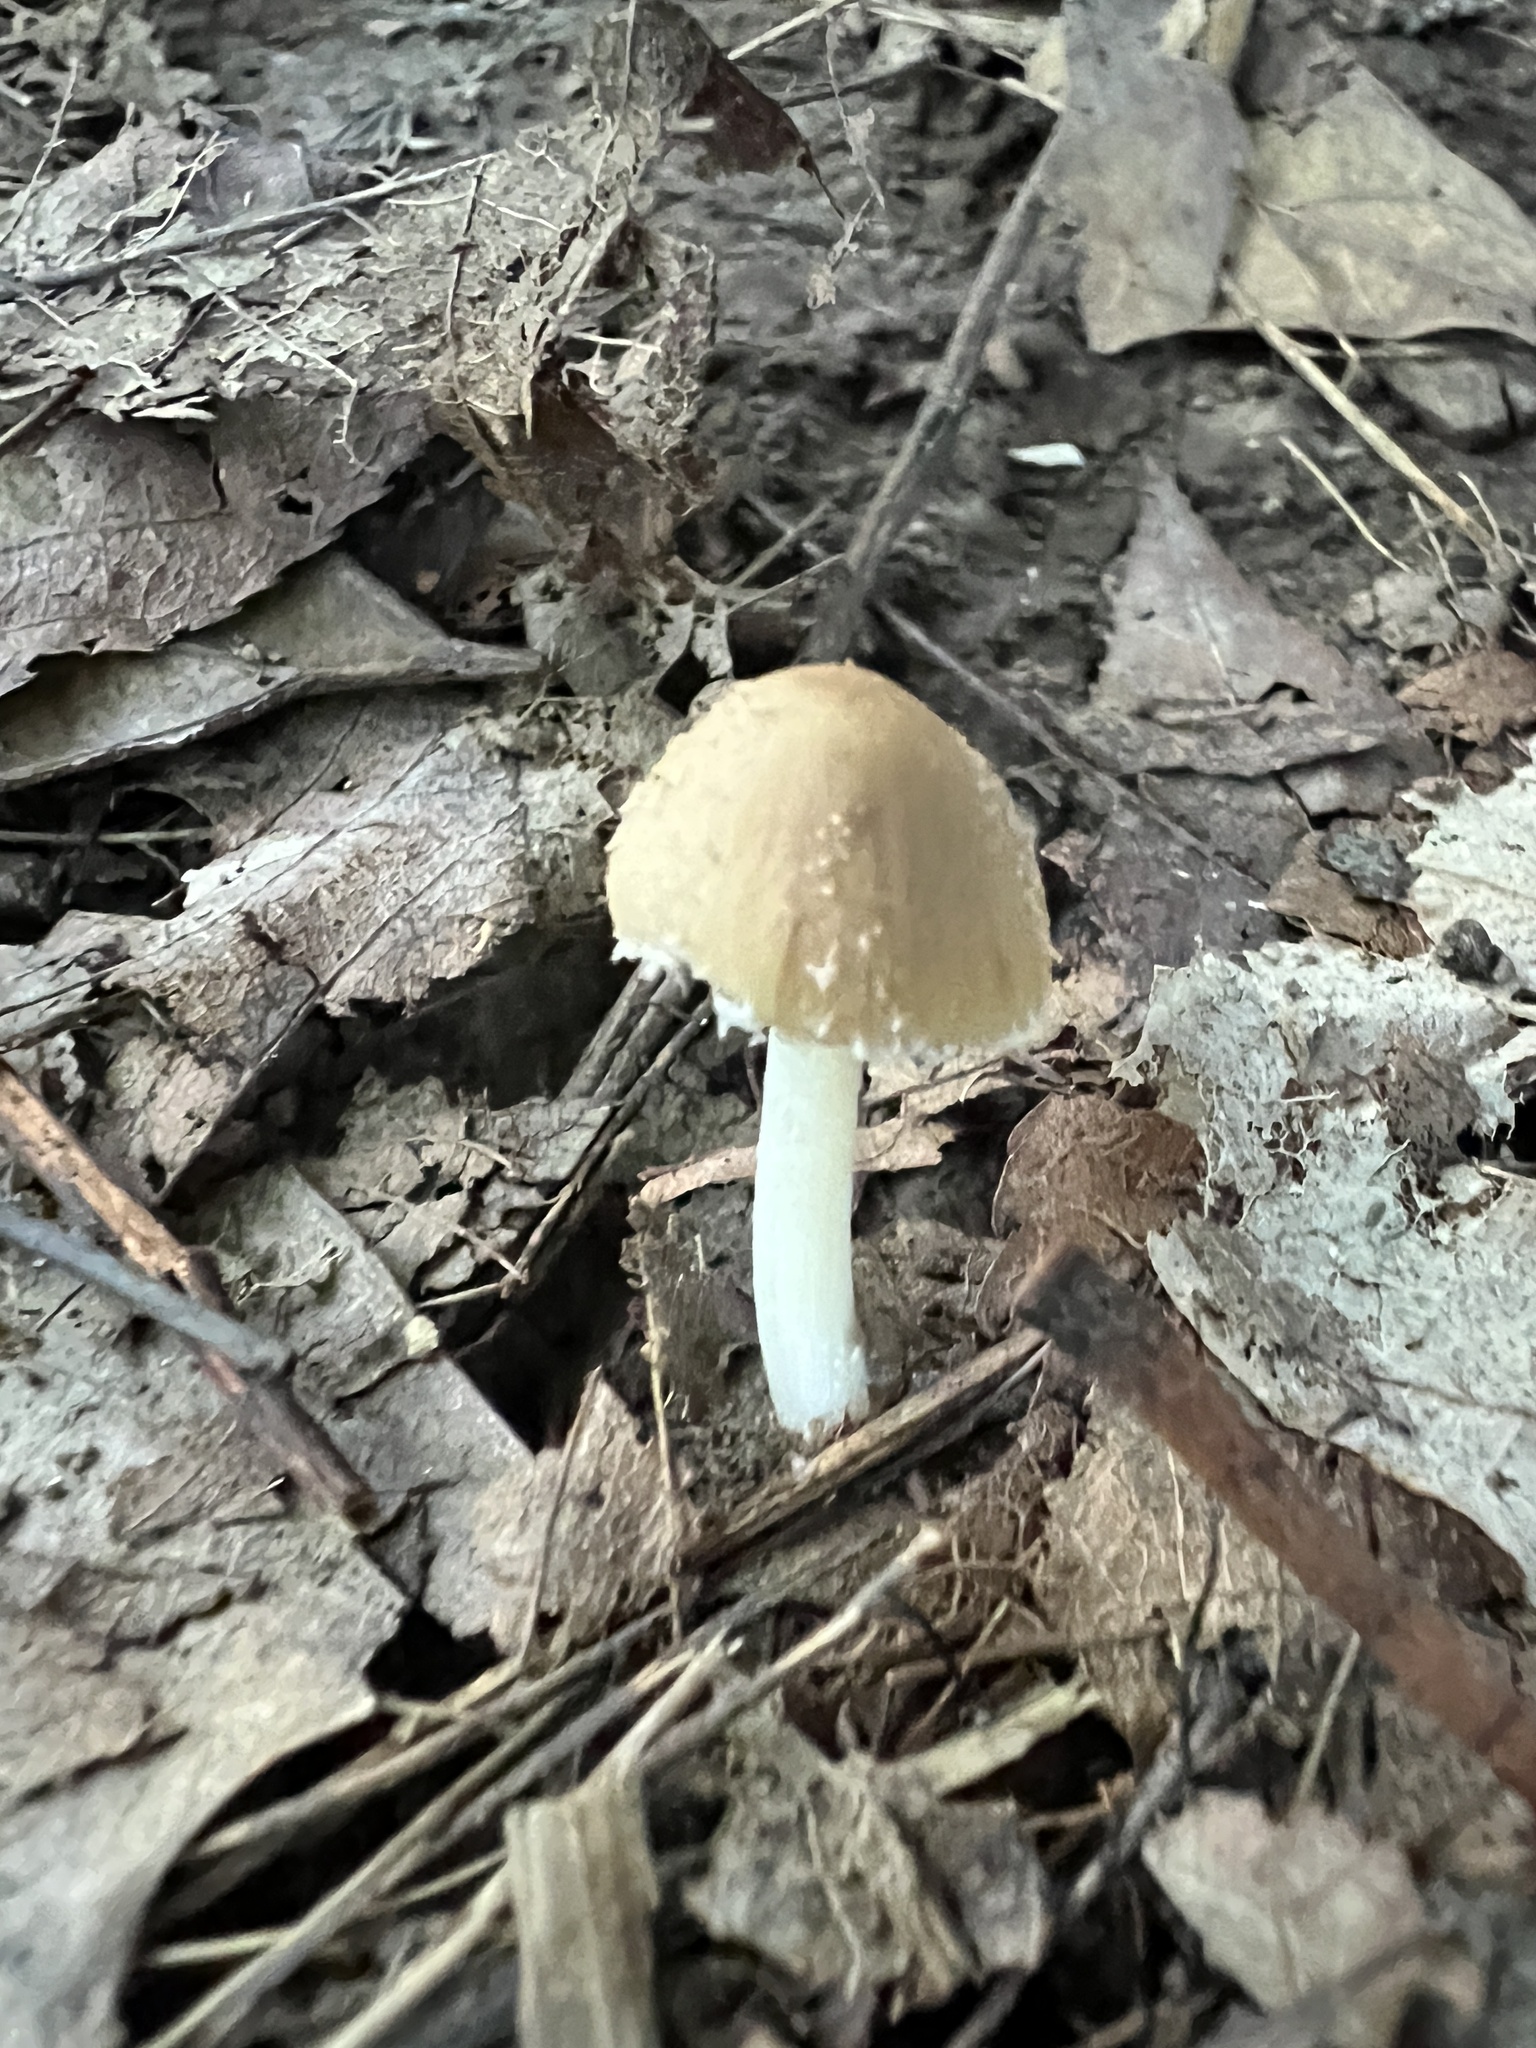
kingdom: Fungi
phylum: Basidiomycota
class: Agaricomycetes
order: Agaricales
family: Psathyrellaceae
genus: Candolleomyces
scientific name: Candolleomyces candolleanus
